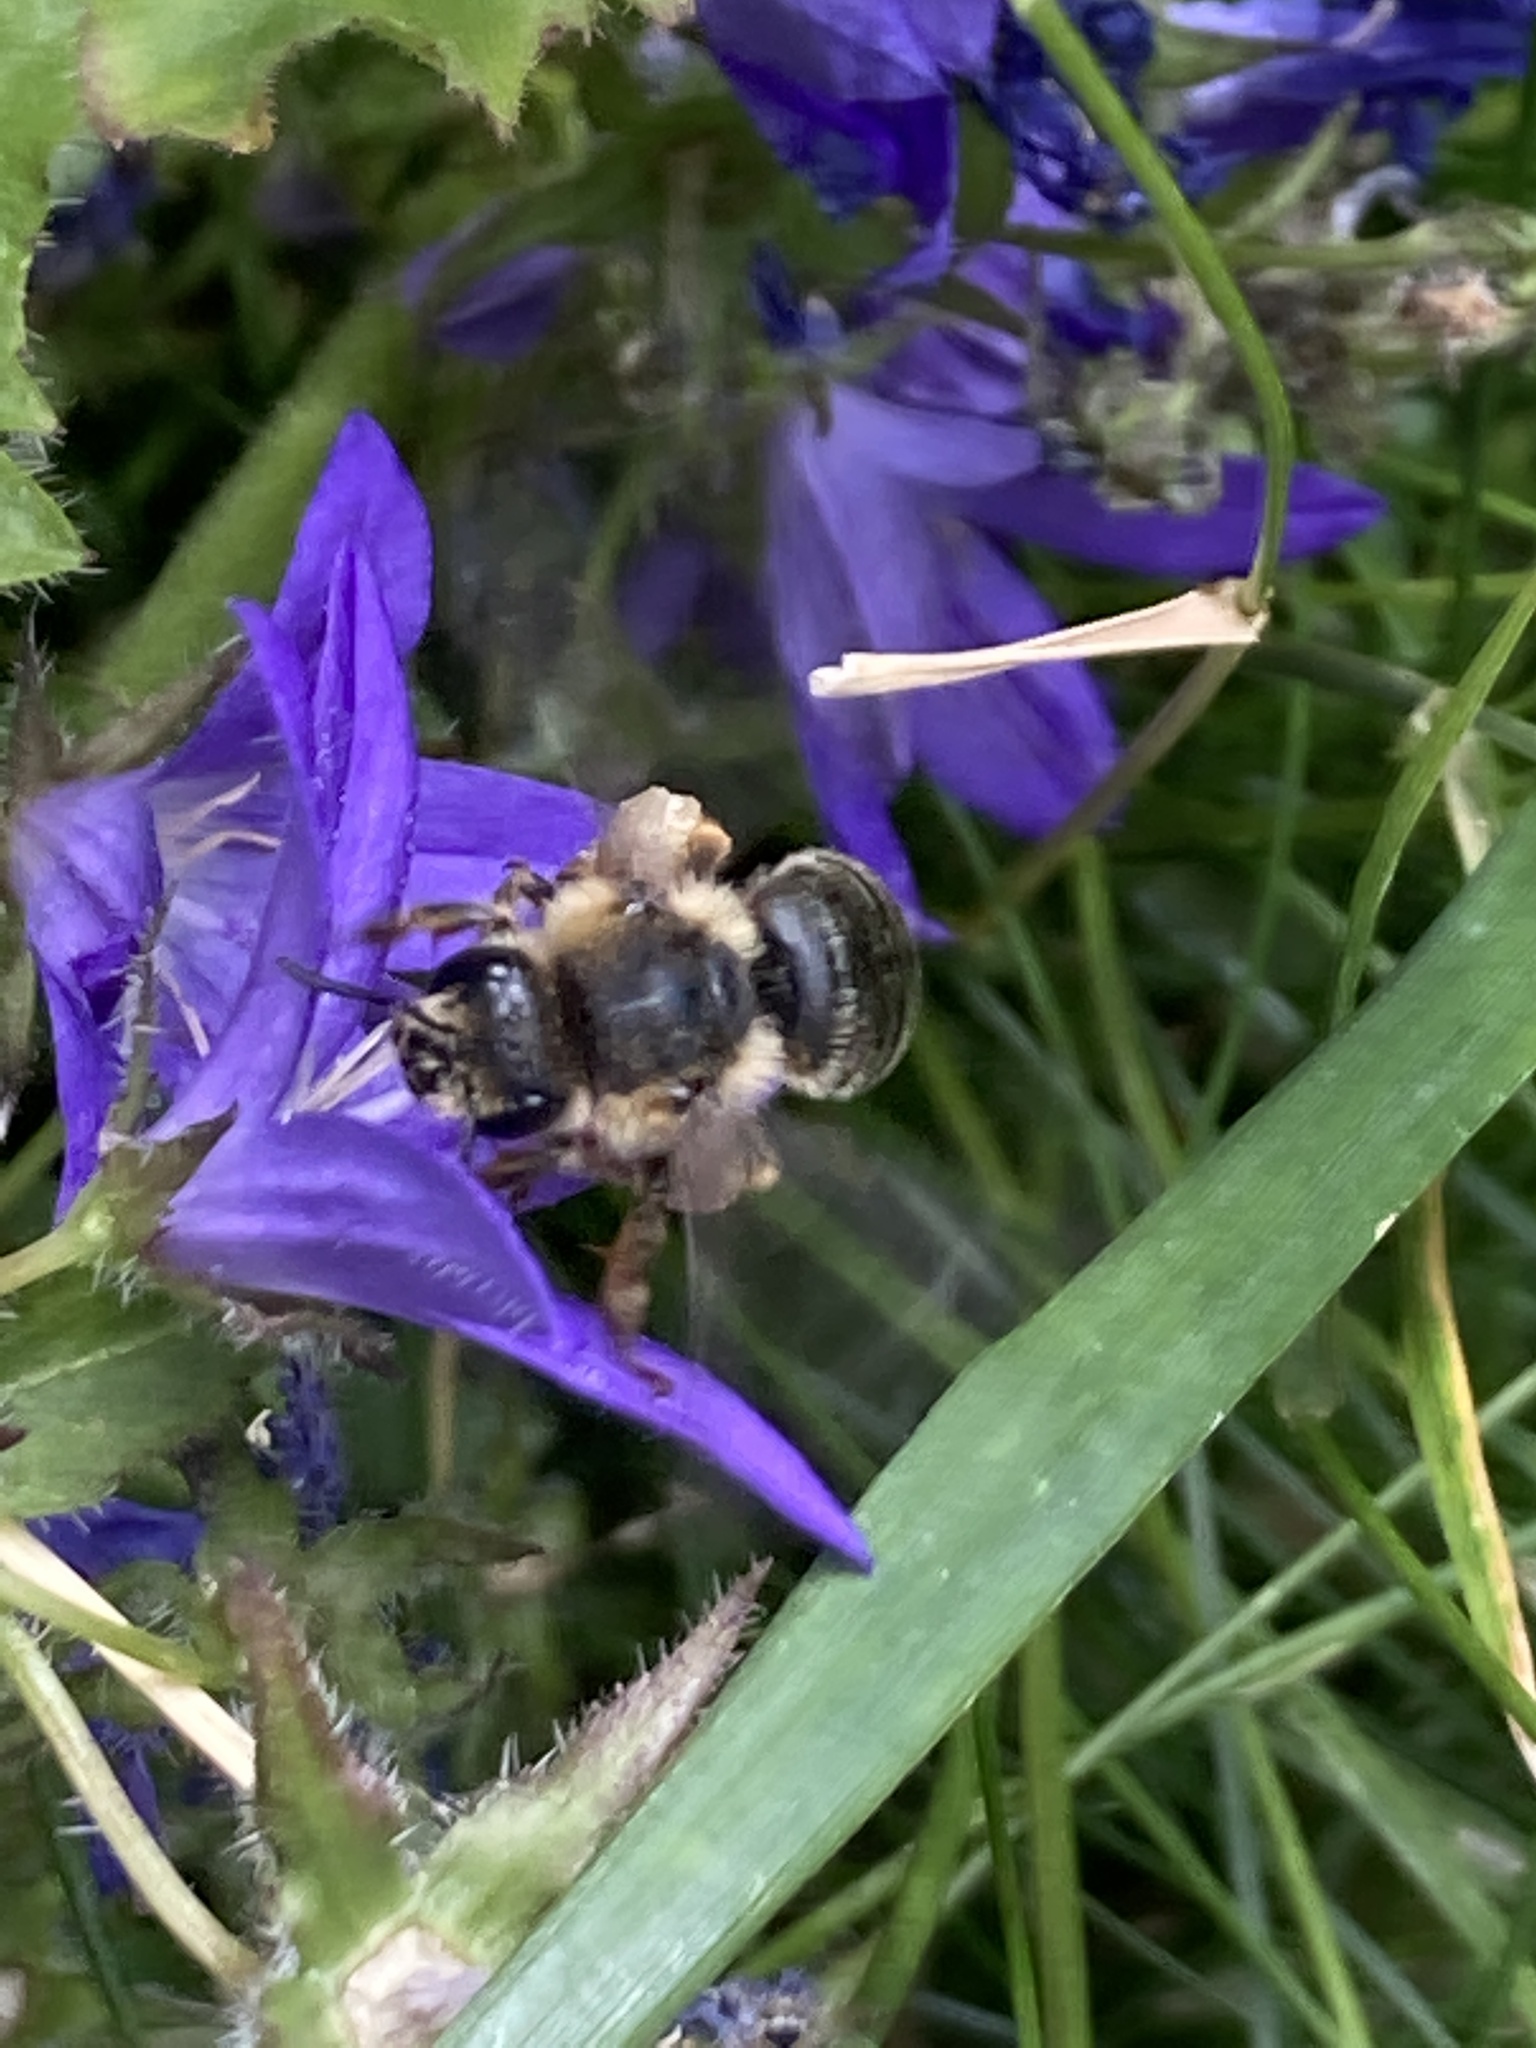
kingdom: Animalia
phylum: Arthropoda
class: Insecta
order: Hymenoptera
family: Melittidae
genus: Melitta
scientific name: Melitta haemorrhoidalis
